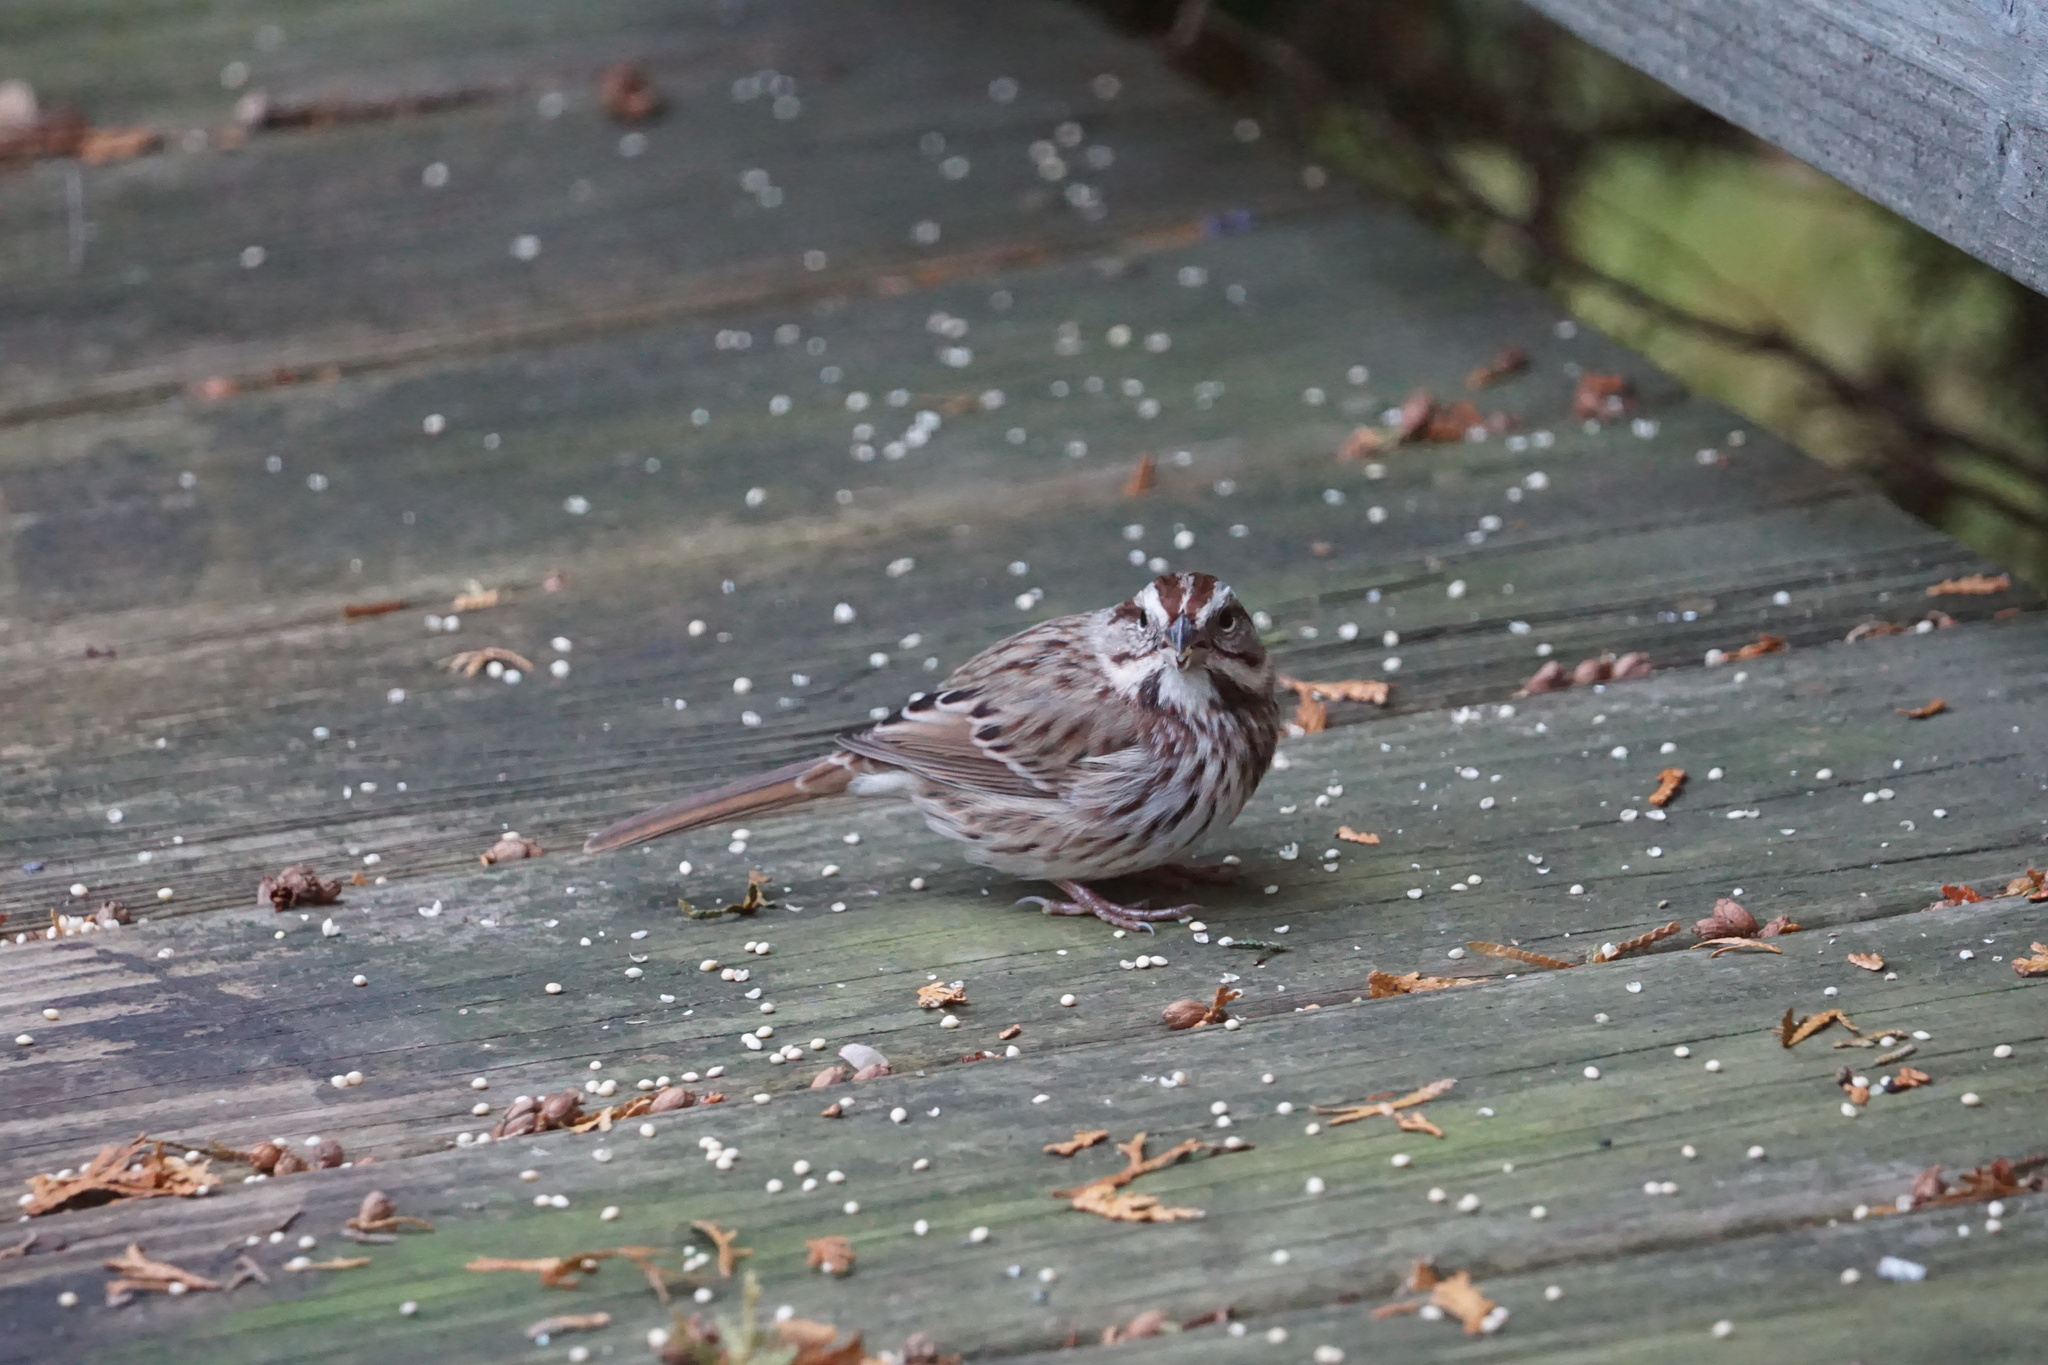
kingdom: Animalia
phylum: Chordata
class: Aves
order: Passeriformes
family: Passerellidae
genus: Melospiza
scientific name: Melospiza melodia
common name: Song sparrow
